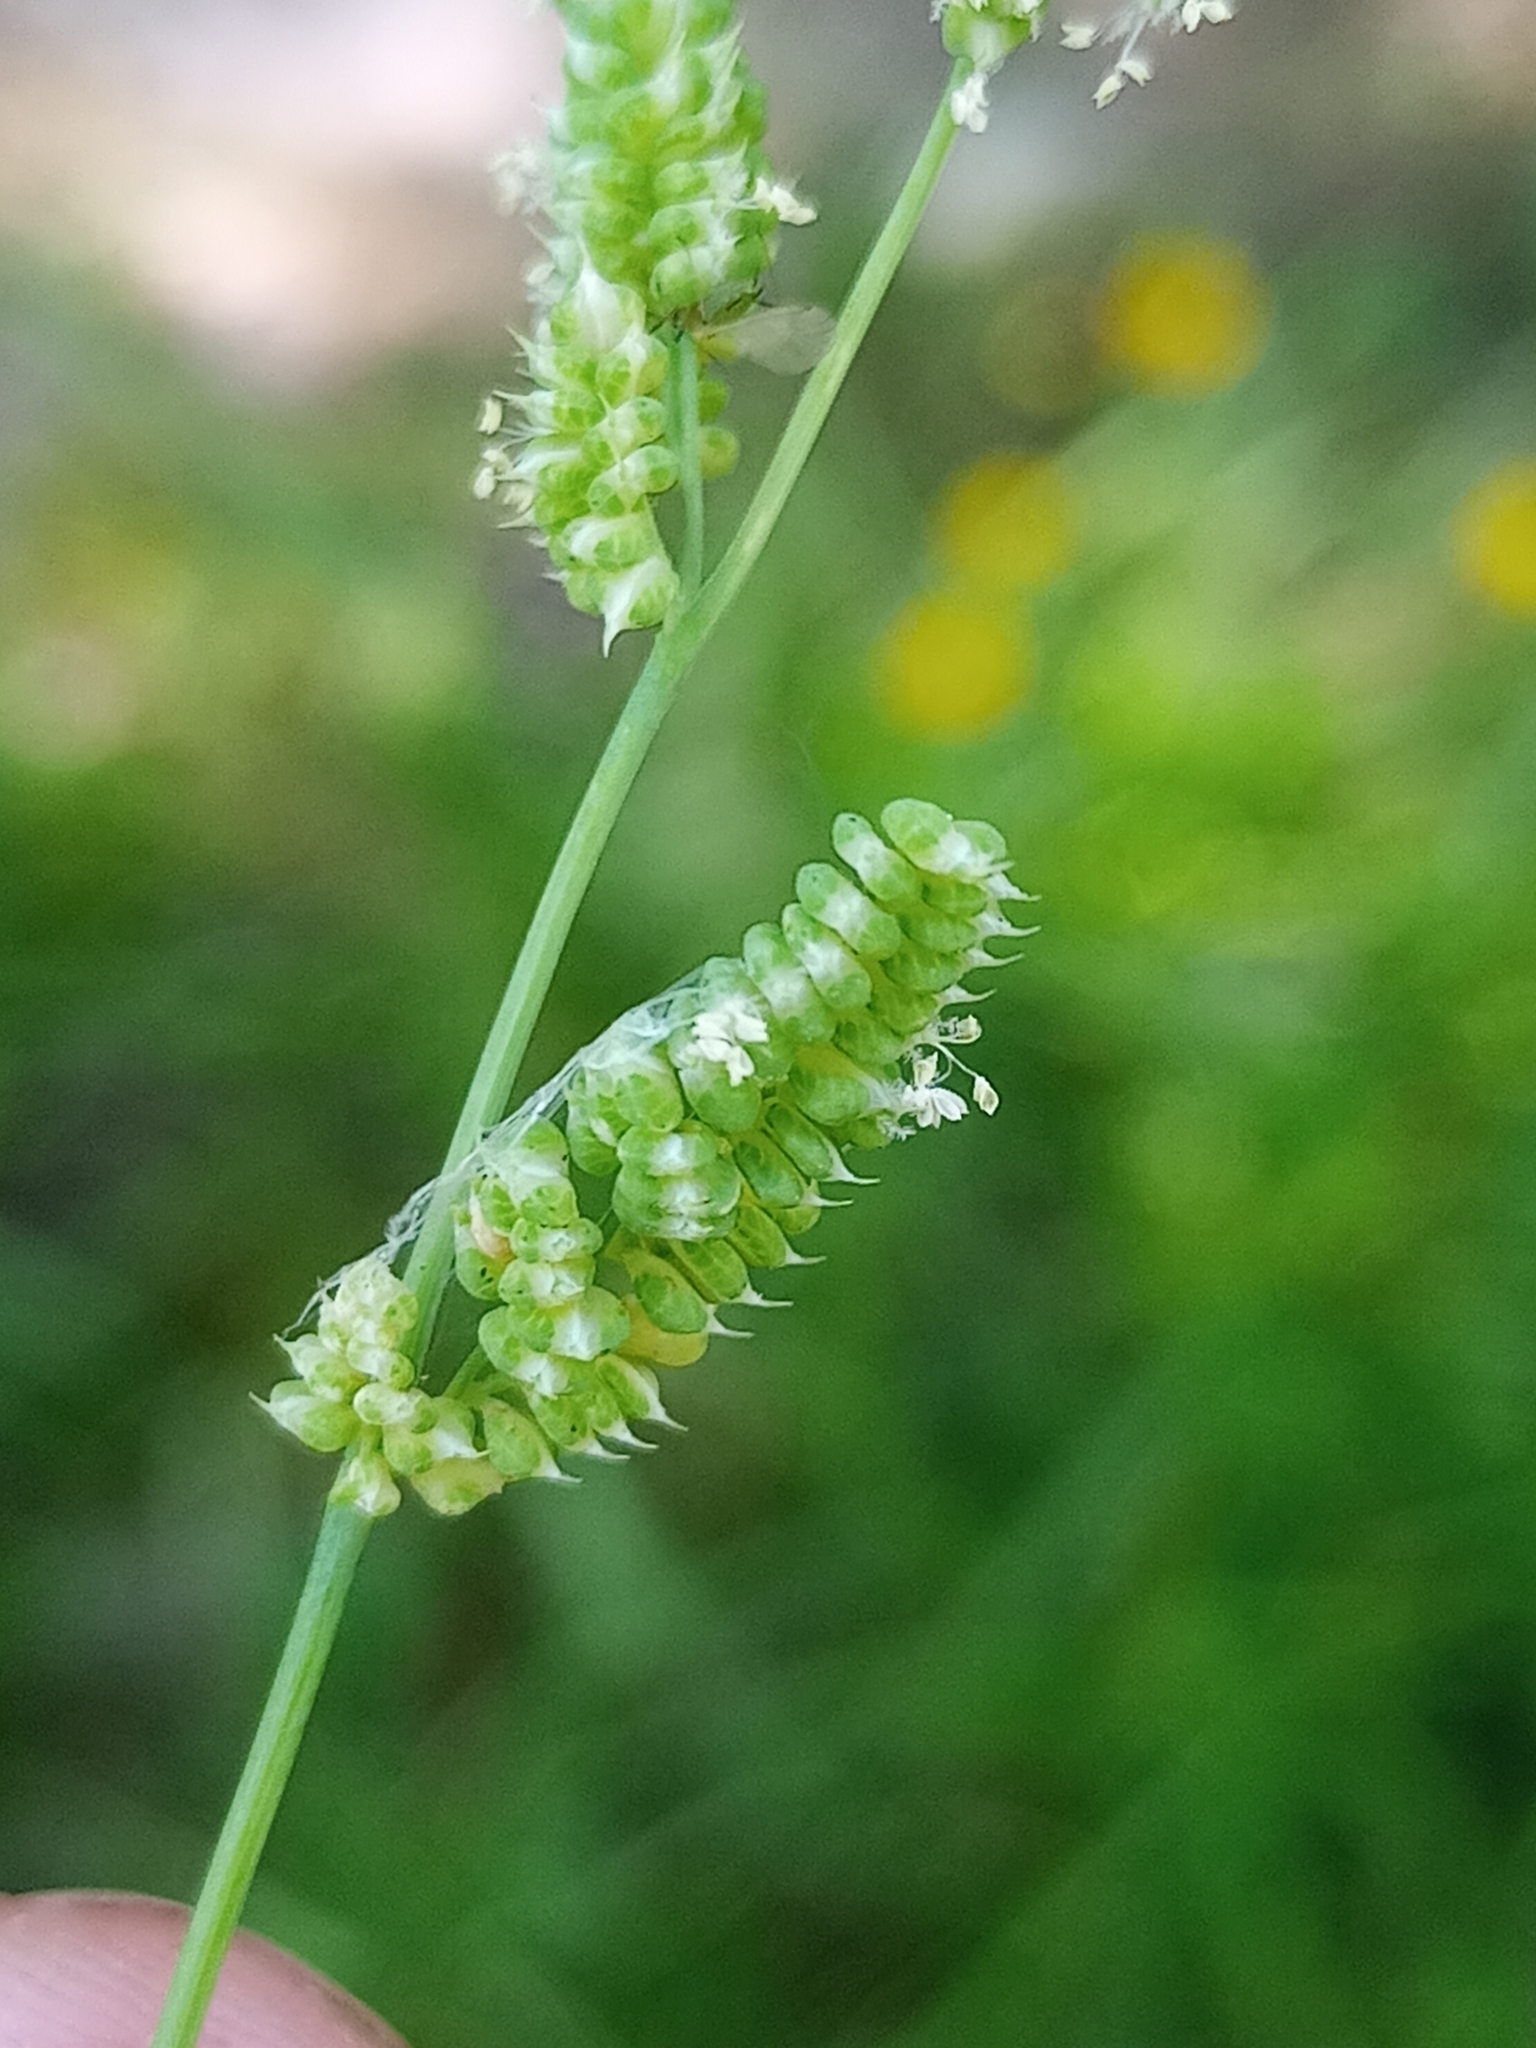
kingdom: Plantae
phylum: Tracheophyta
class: Liliopsida
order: Poales
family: Poaceae
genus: Beckmannia
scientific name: Beckmannia syzigachne
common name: American slough-grass
